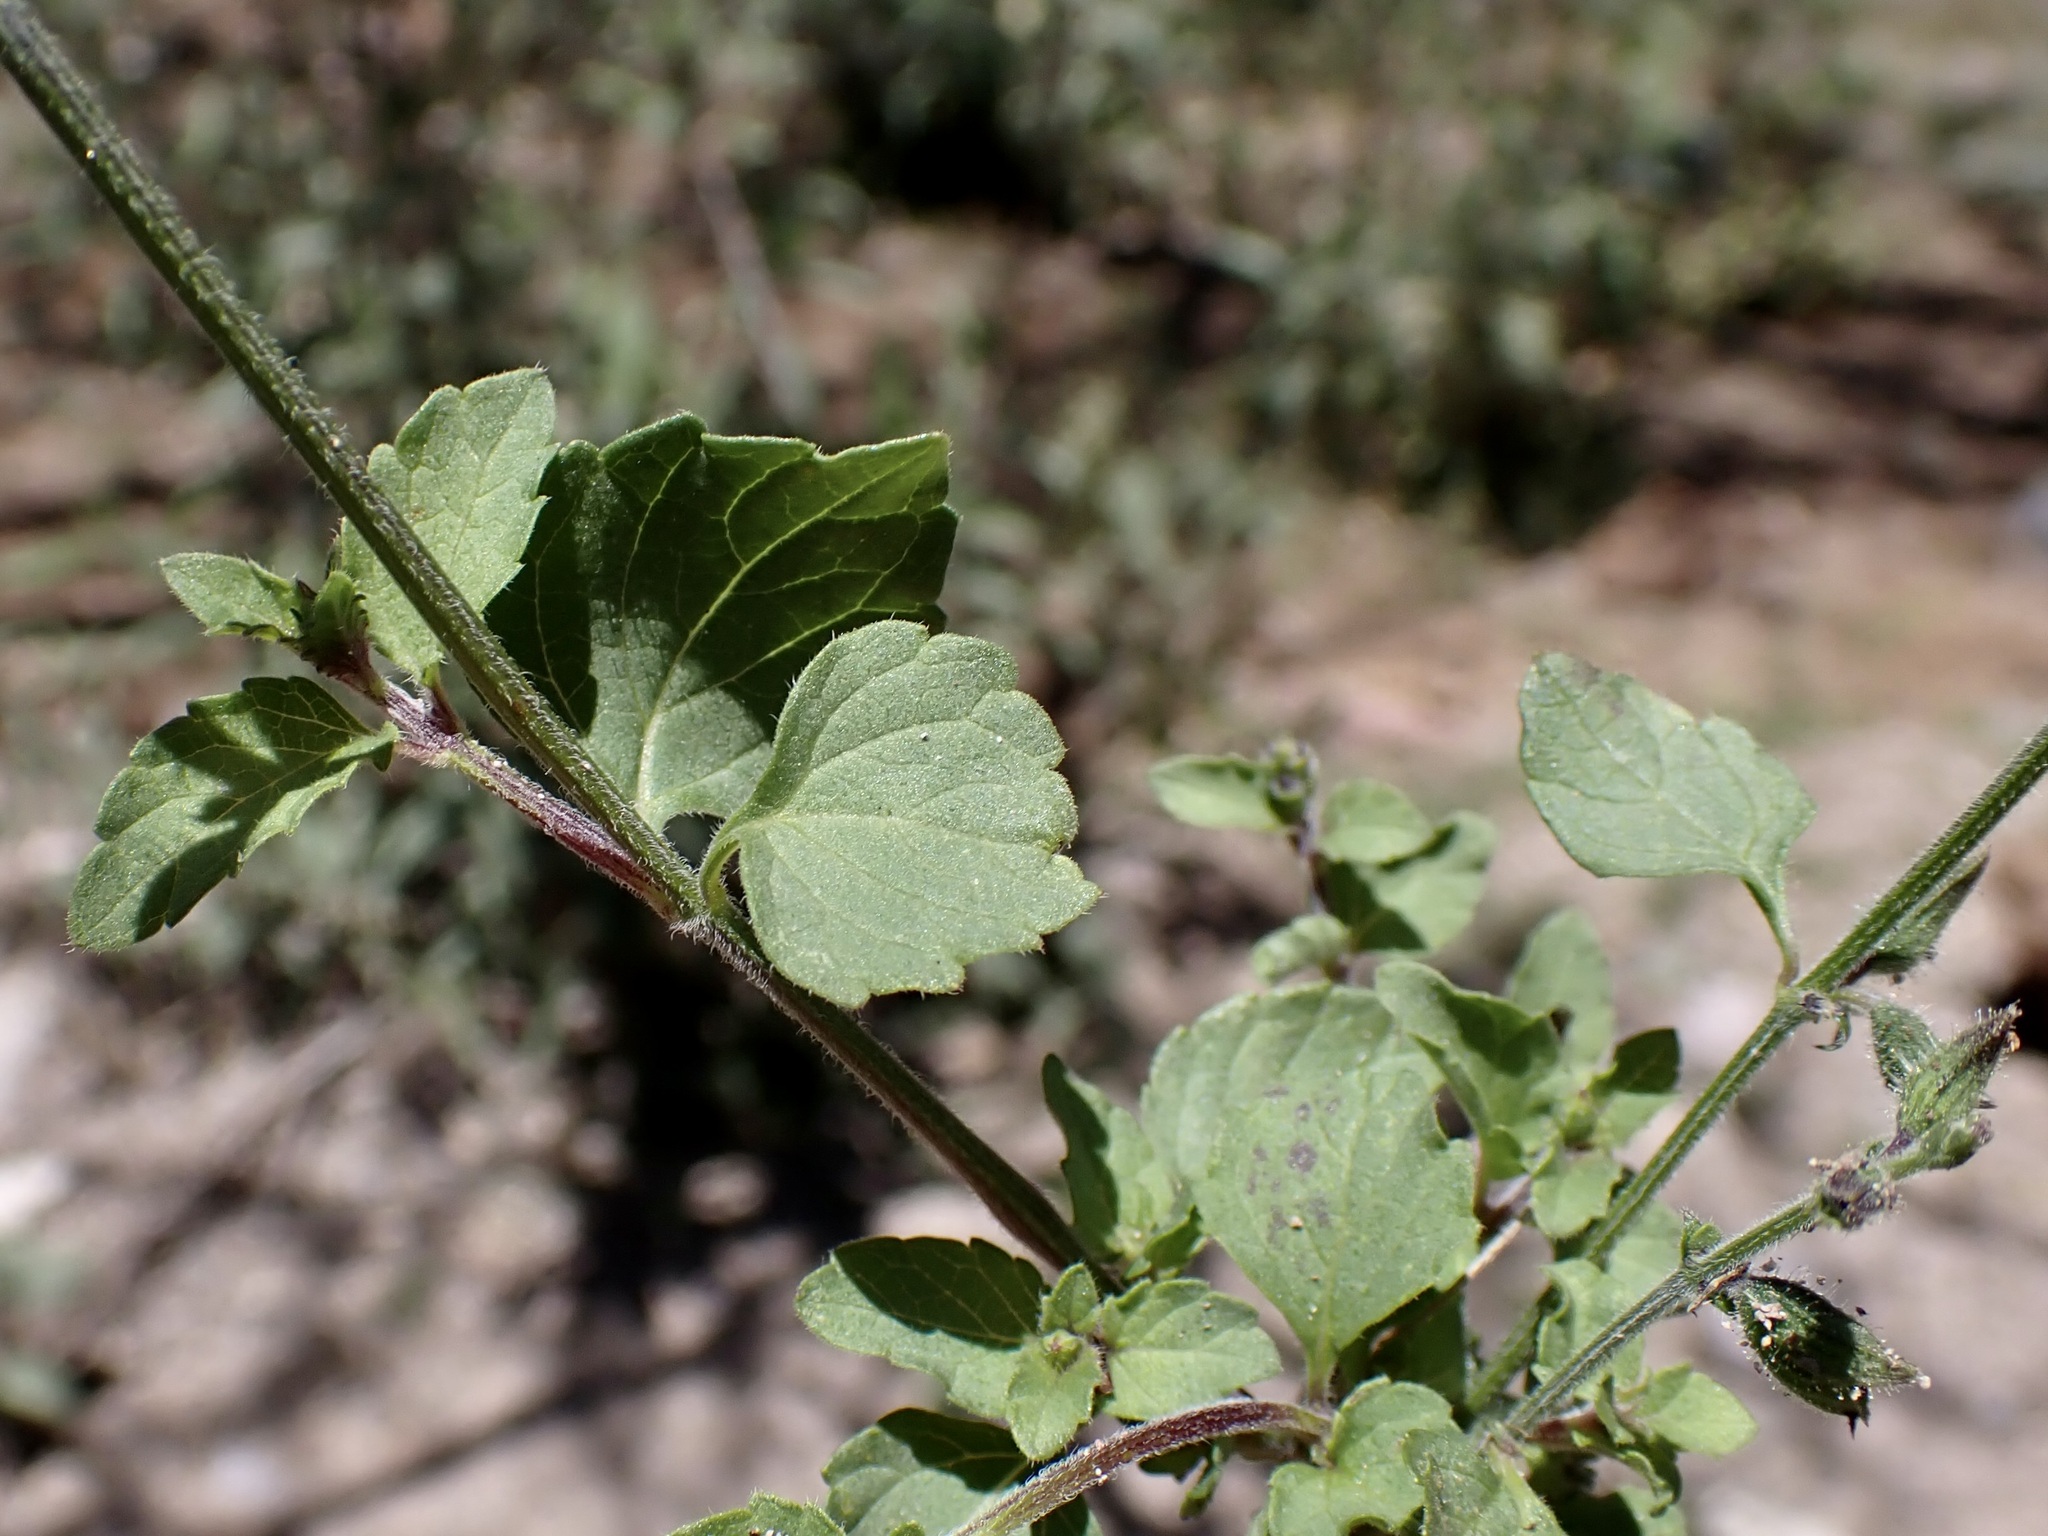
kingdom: Plantae
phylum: Tracheophyta
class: Magnoliopsida
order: Lamiales
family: Lamiaceae
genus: Salvia
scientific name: Salvia misella
